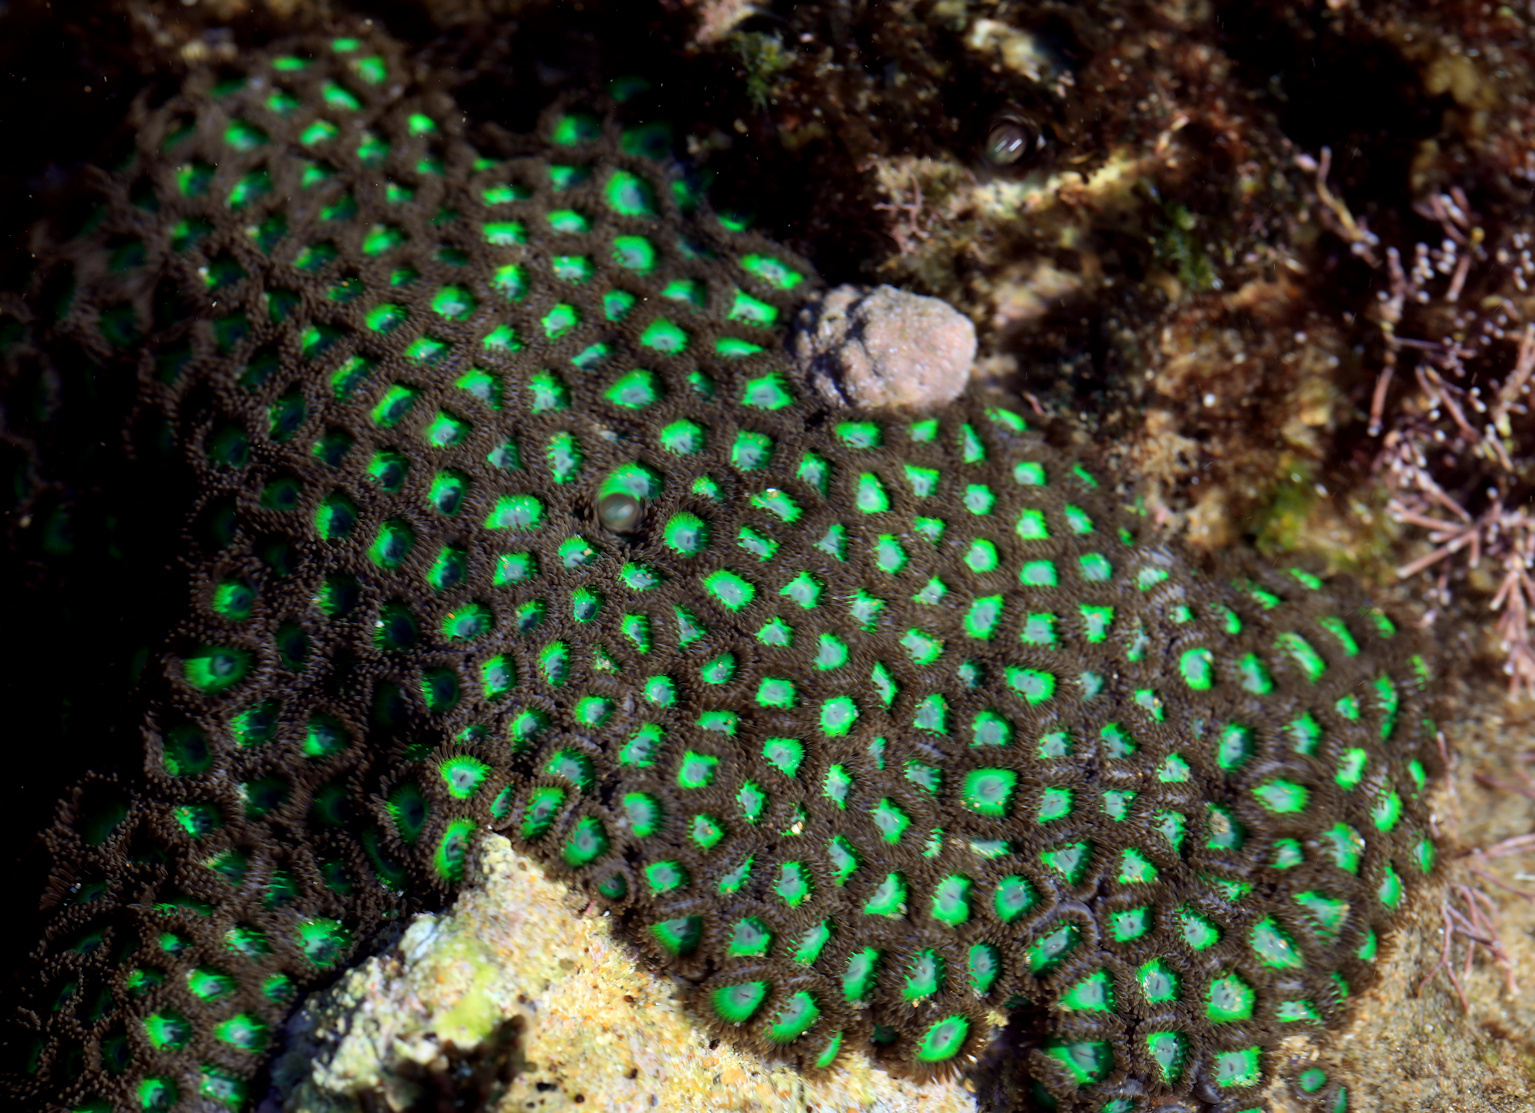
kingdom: Animalia
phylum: Cnidaria
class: Anthozoa
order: Zoantharia
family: Zoanthidae
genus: Zoanthus
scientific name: Zoanthus sansibaricus
